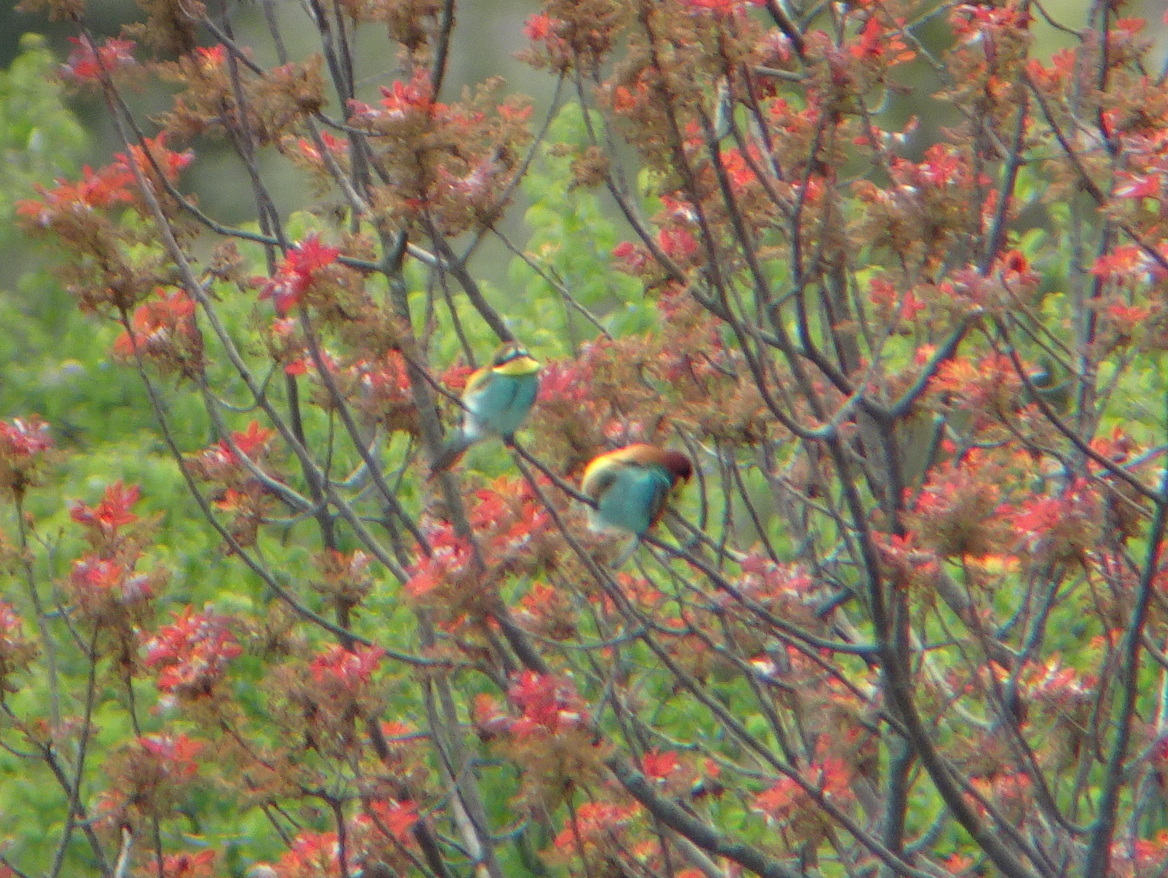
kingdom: Animalia
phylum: Chordata
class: Aves
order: Coraciiformes
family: Meropidae
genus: Merops
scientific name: Merops apiaster
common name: European bee-eater
